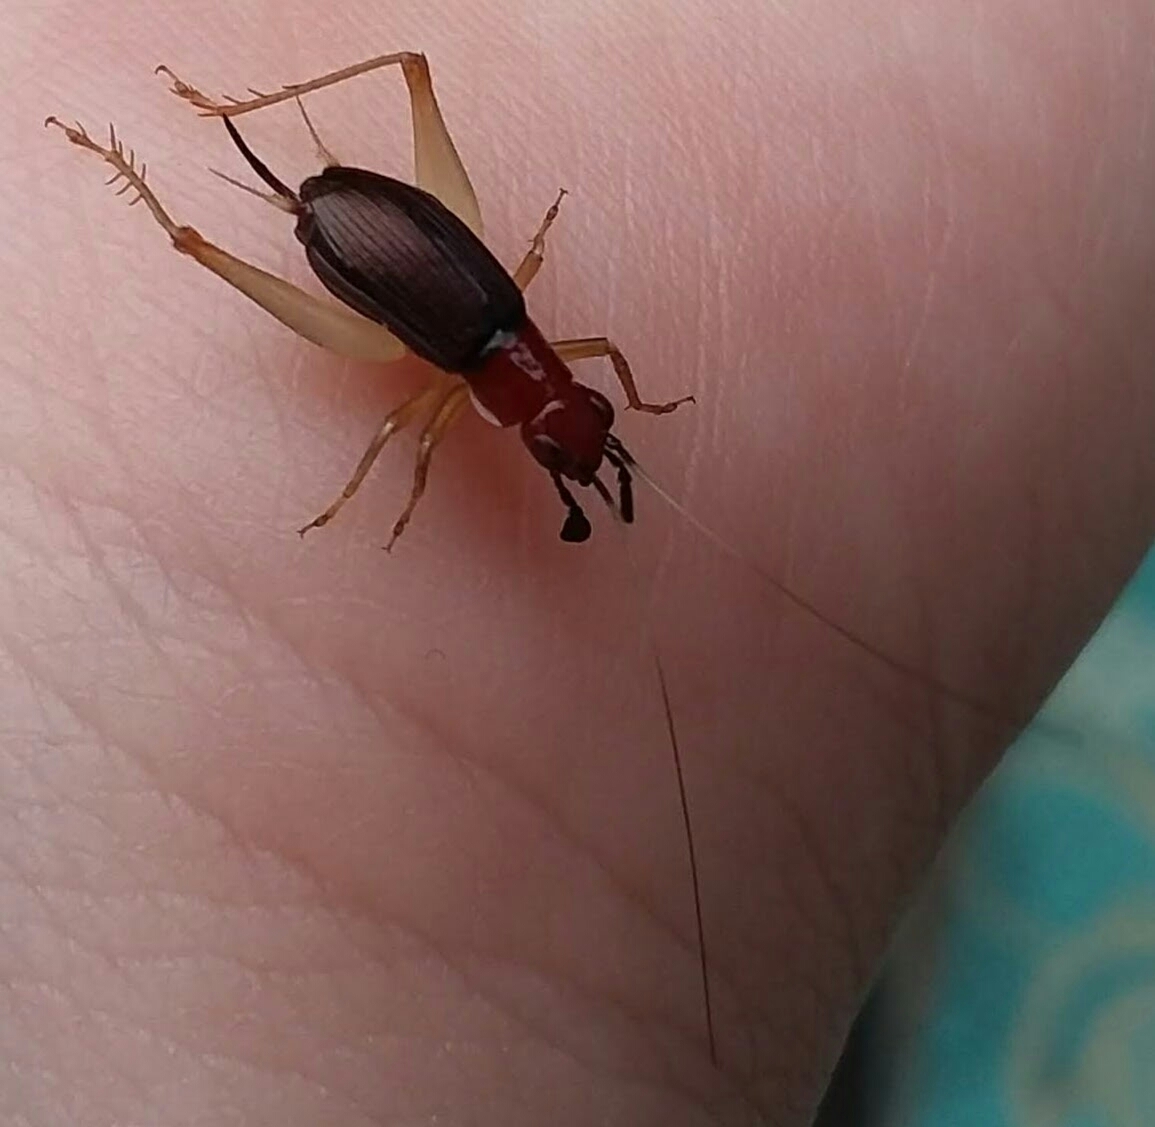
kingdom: Animalia
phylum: Arthropoda
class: Insecta
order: Orthoptera
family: Trigonidiidae
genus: Phyllopalpus
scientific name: Phyllopalpus pulchellus
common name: Handsome trig
